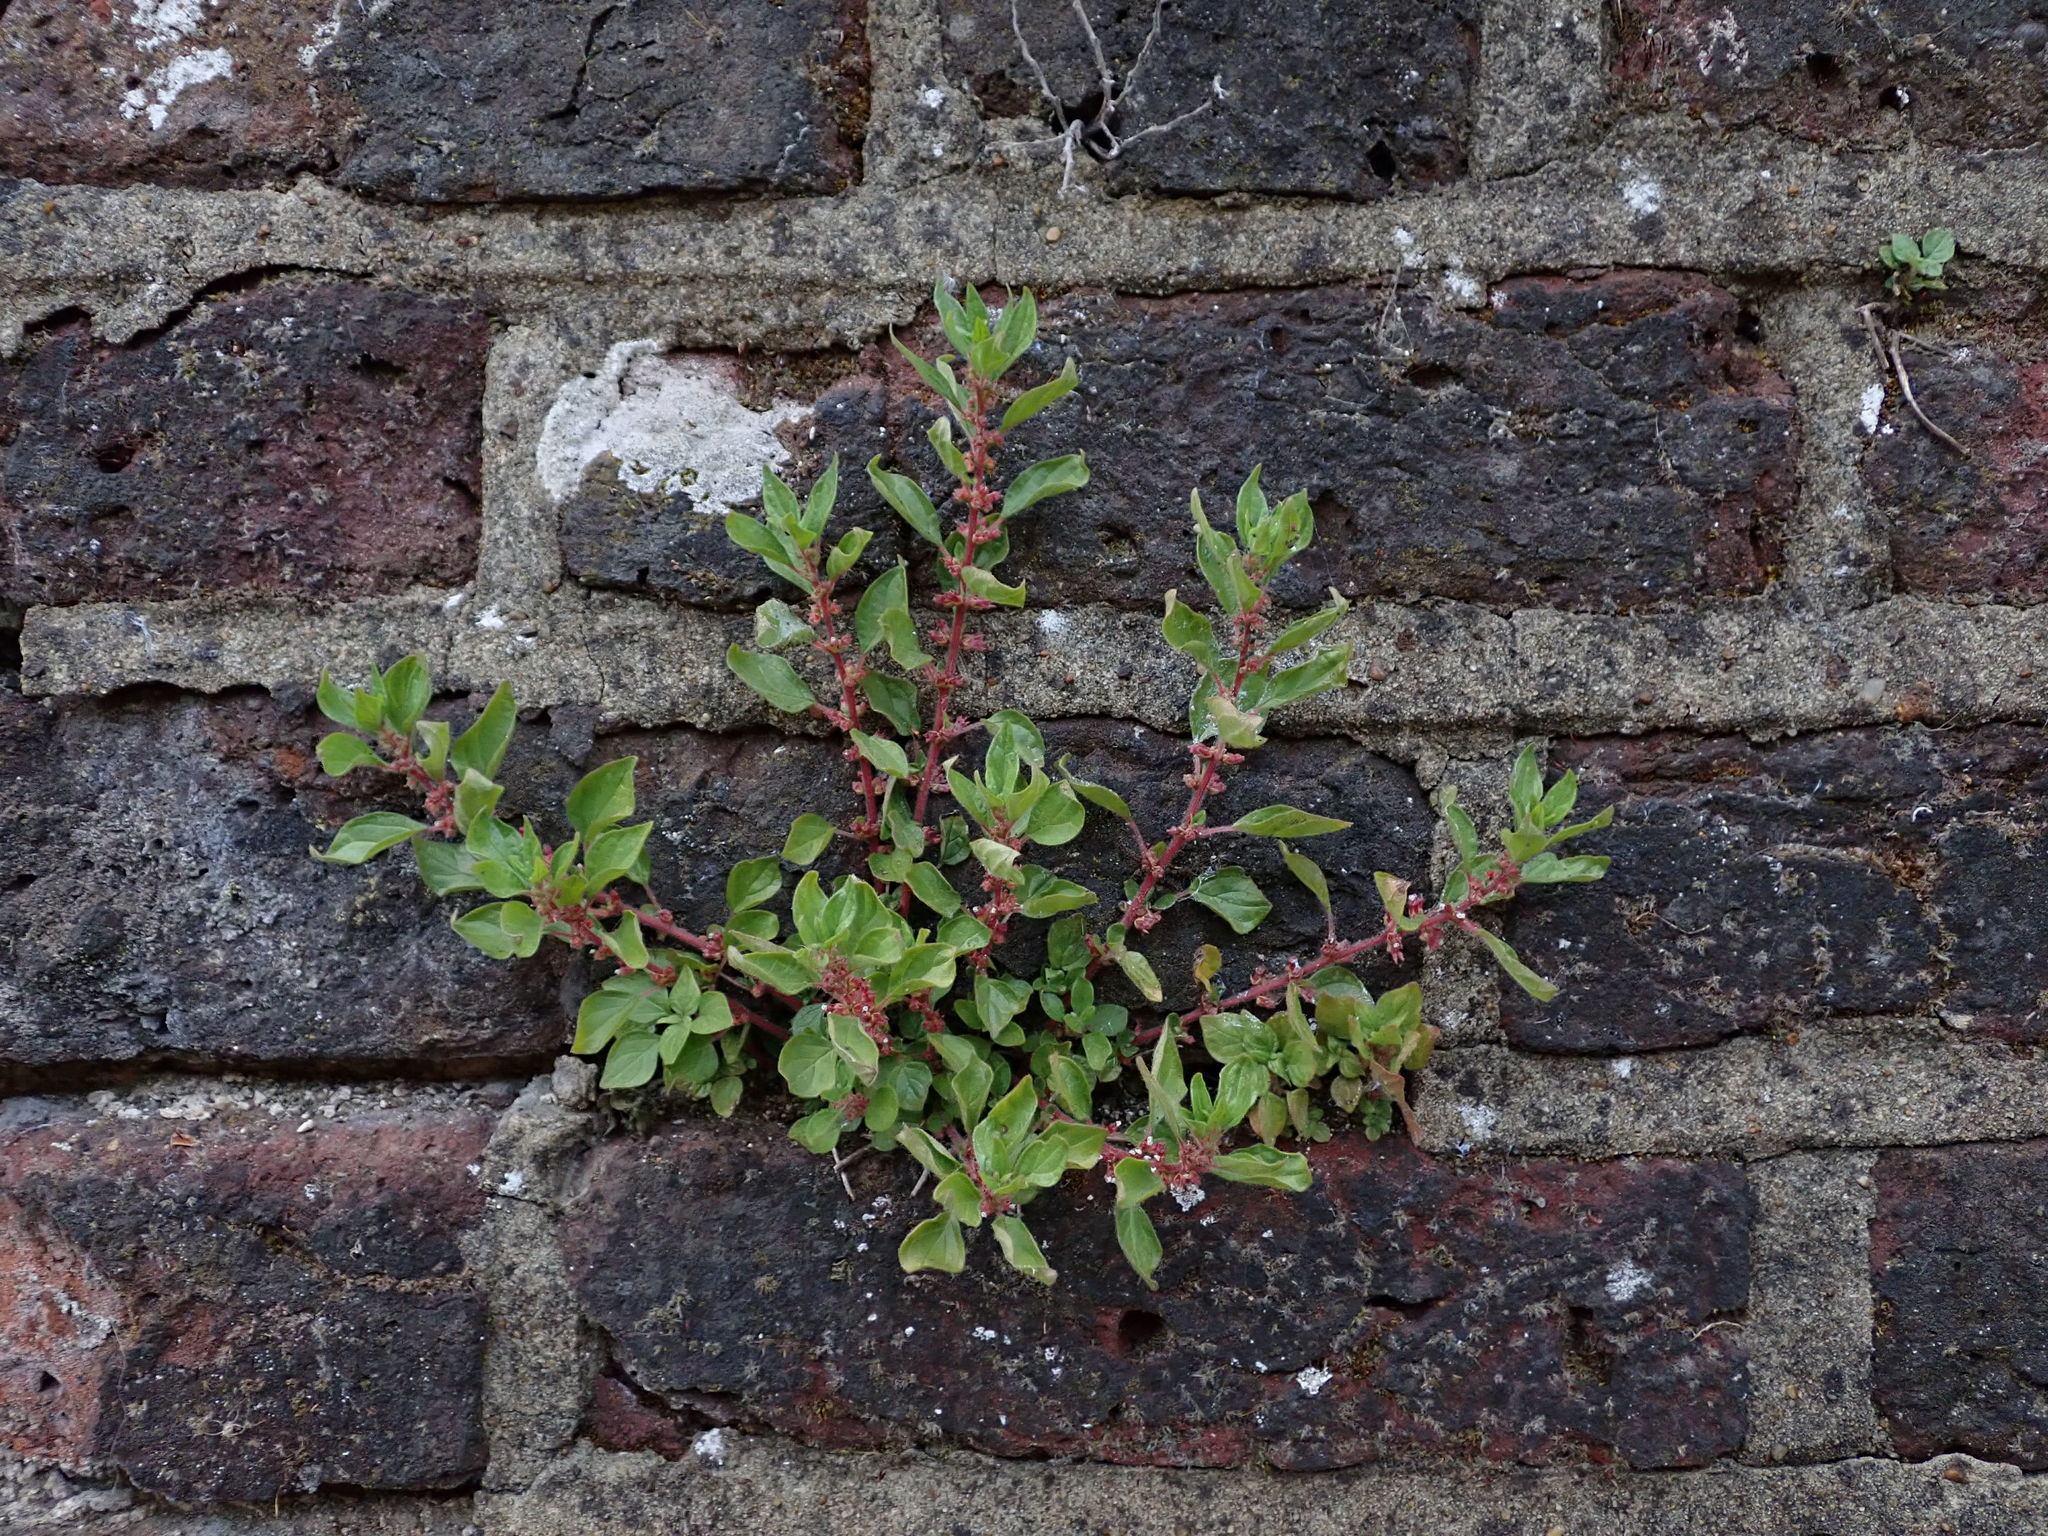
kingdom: Plantae
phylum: Tracheophyta
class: Magnoliopsida
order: Rosales
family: Urticaceae
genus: Parietaria
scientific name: Parietaria judaica
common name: Pellitory-of-the-wall
